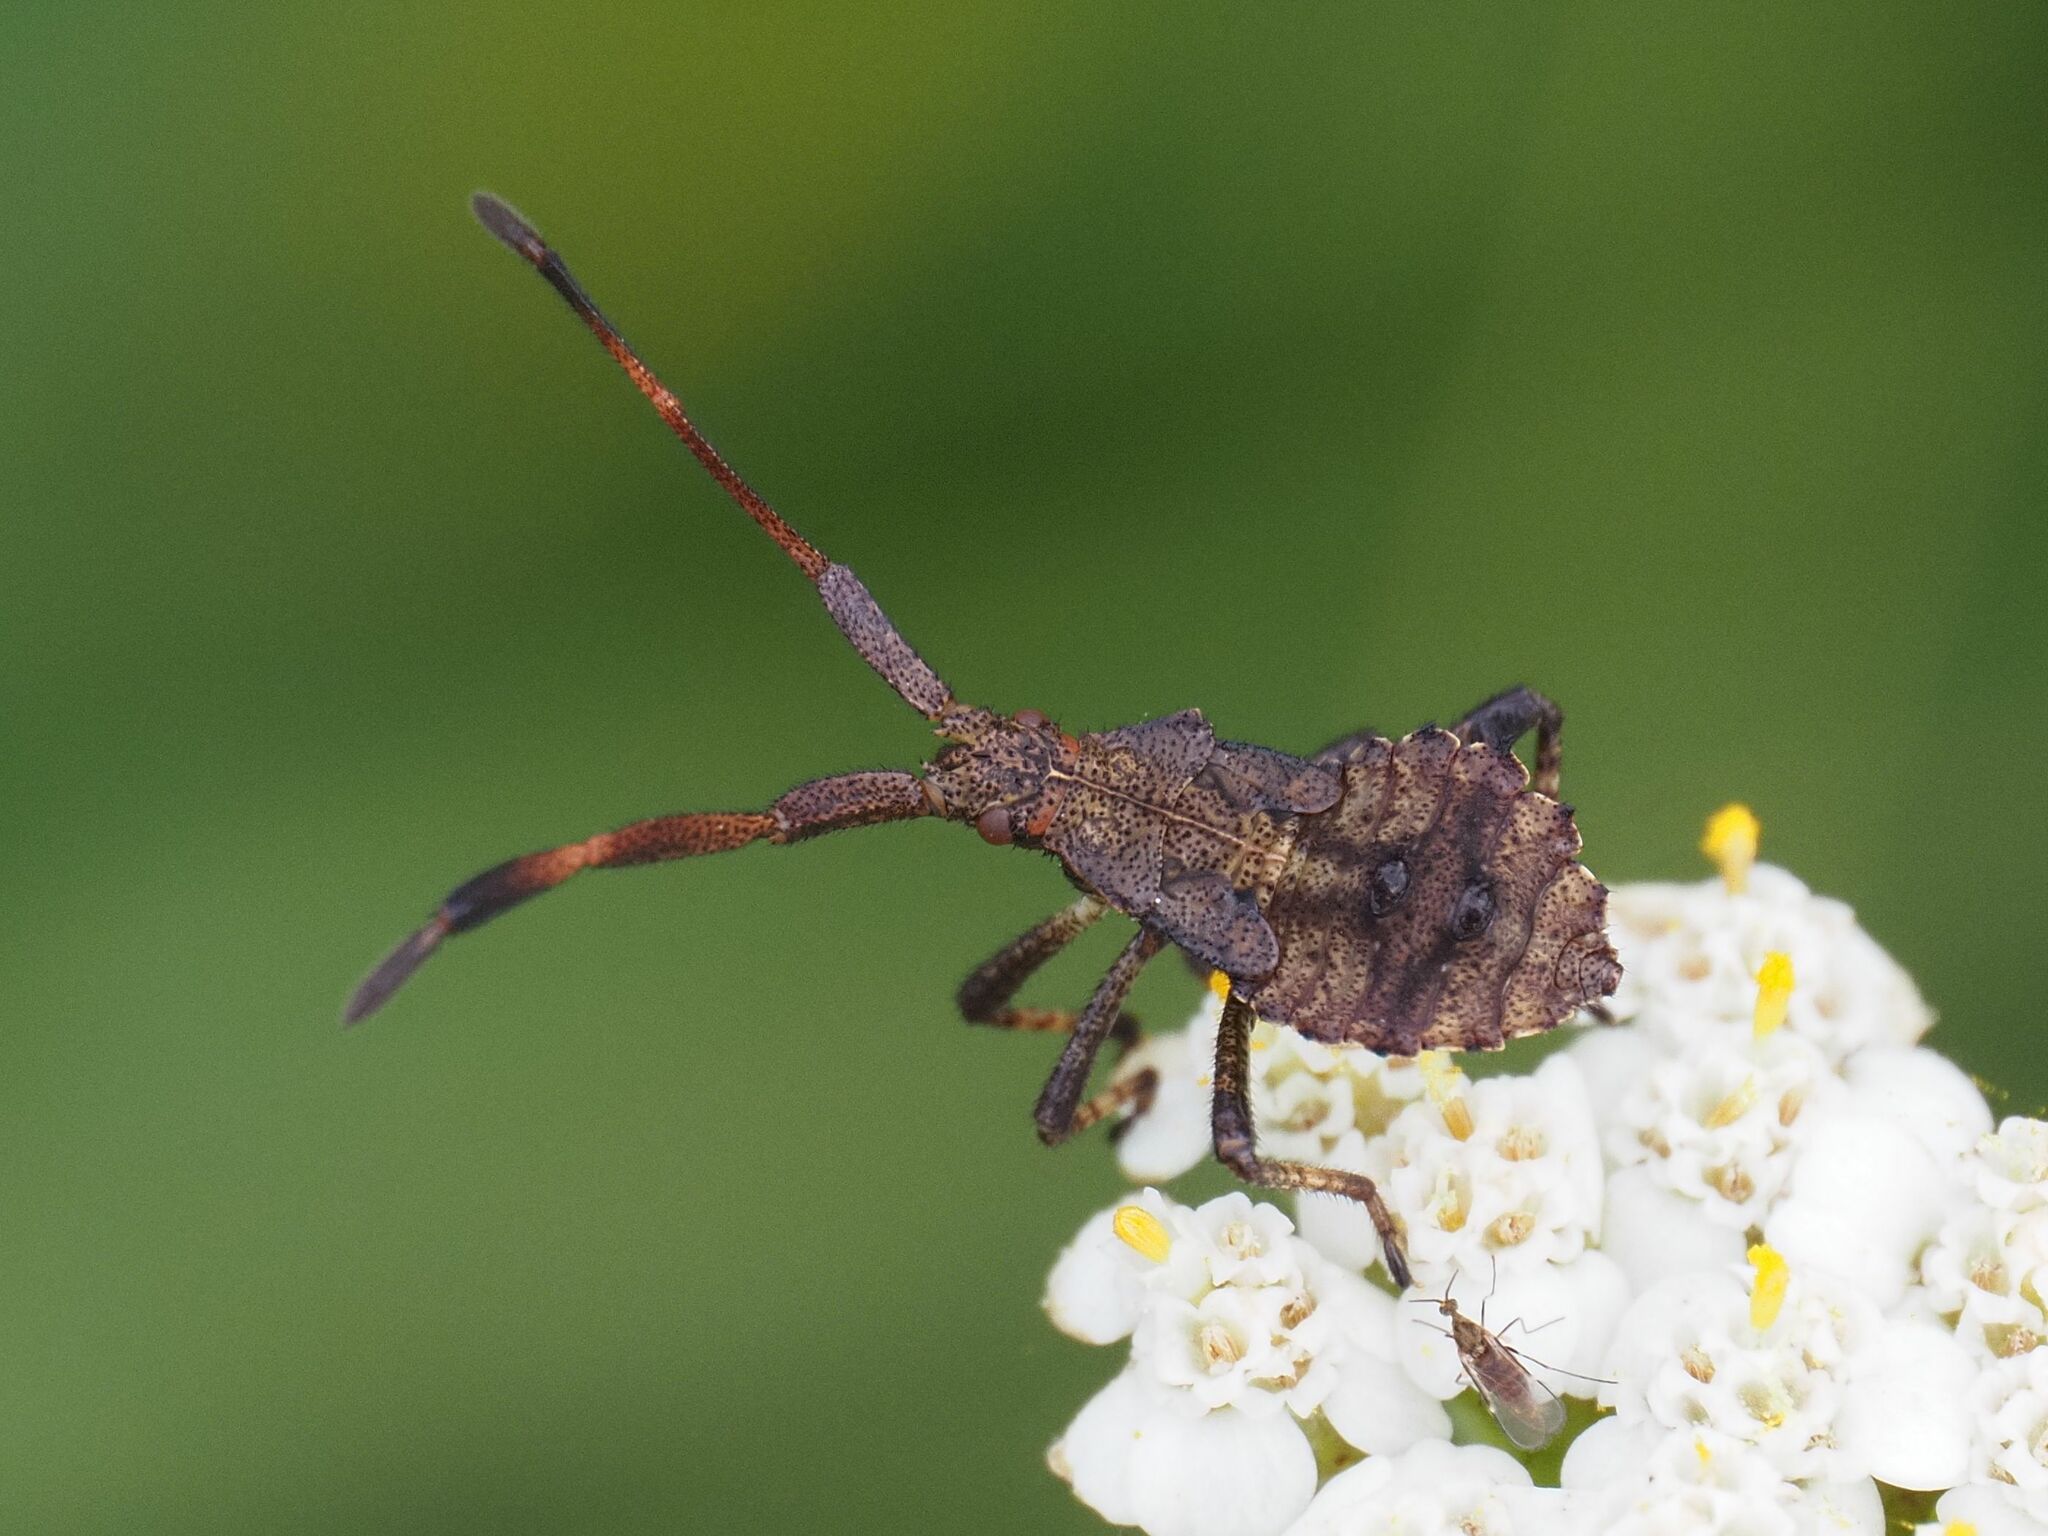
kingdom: Animalia
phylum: Arthropoda
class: Insecta
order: Hemiptera
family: Coreidae
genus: Coreus
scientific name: Coreus marginatus
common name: Dock bug
